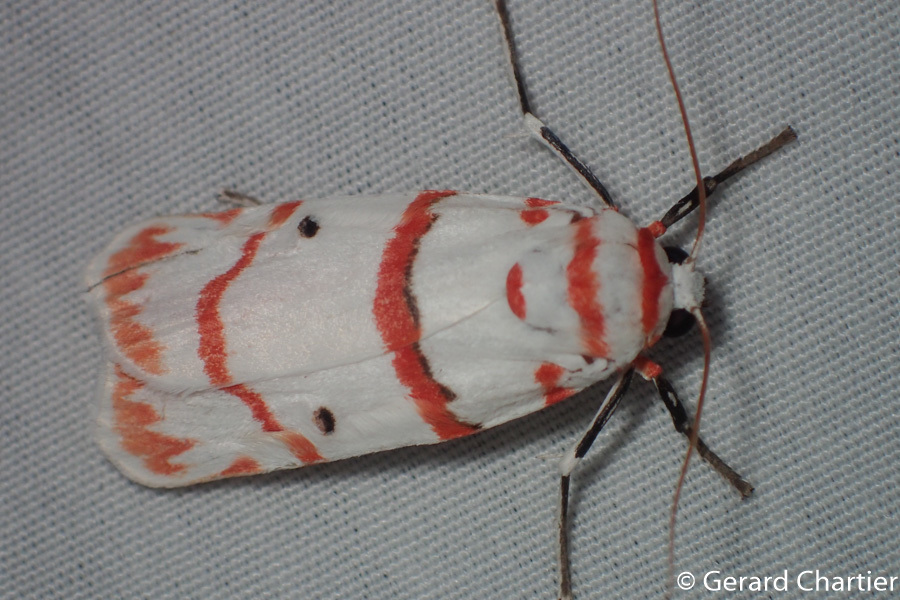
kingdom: Animalia
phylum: Arthropoda
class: Insecta
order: Lepidoptera
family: Erebidae
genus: Cyana
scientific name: Cyana perornata
